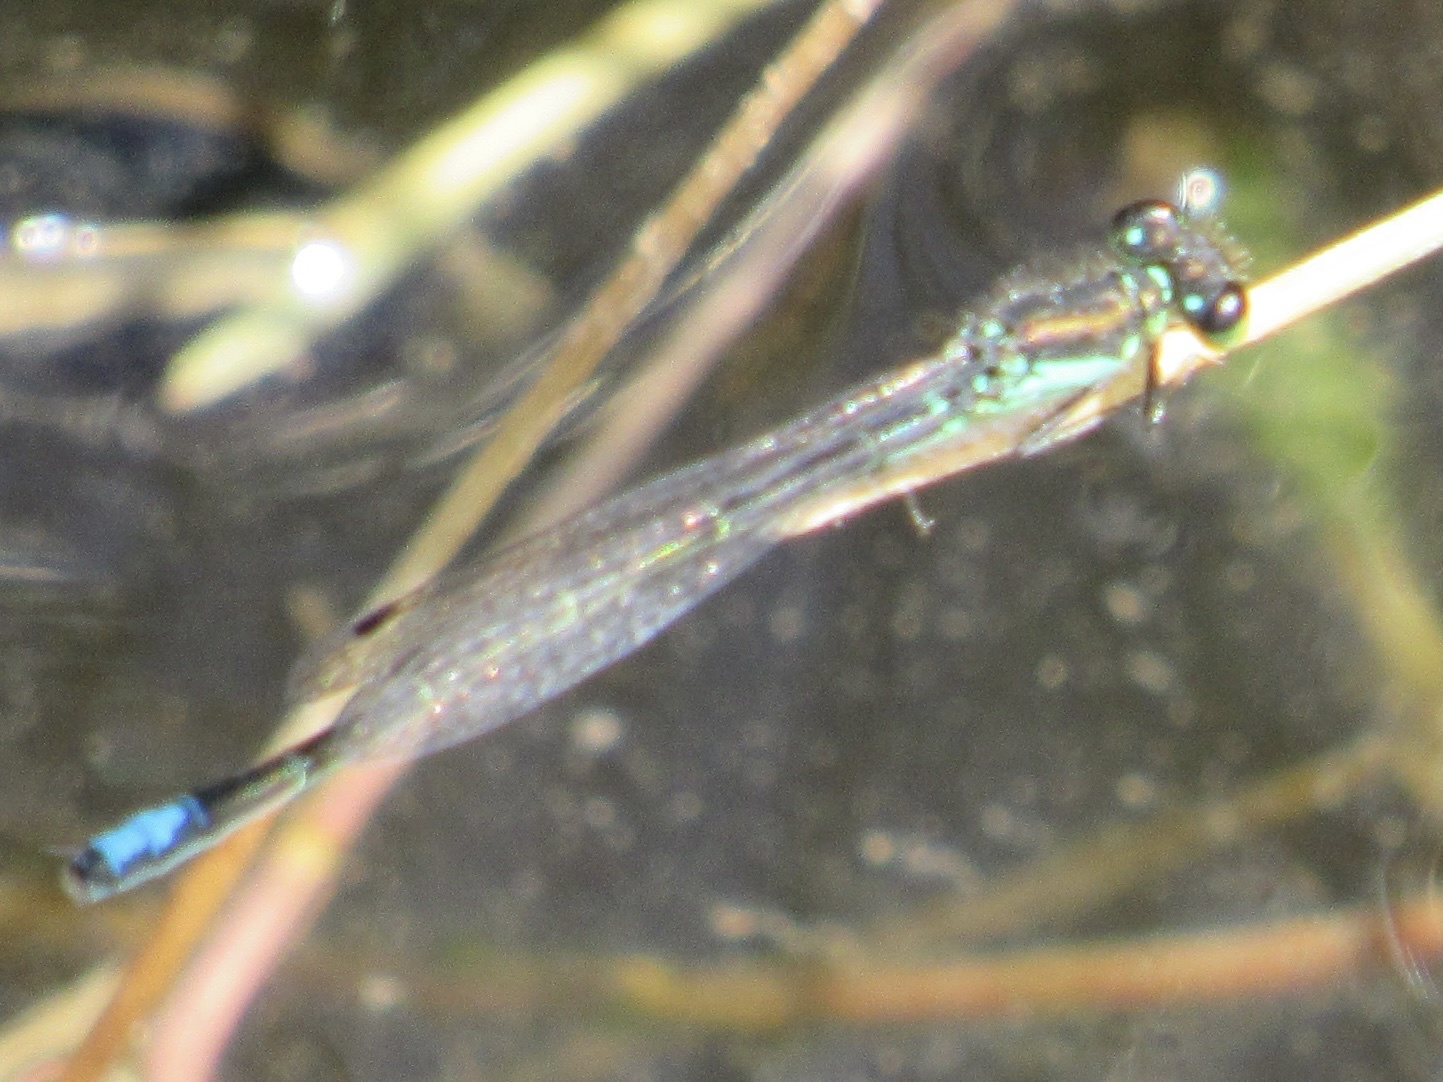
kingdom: Animalia
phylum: Arthropoda
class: Insecta
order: Odonata
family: Coenagrionidae
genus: Ischnura
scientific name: Ischnura denticollis
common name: Black-fronted forktail
